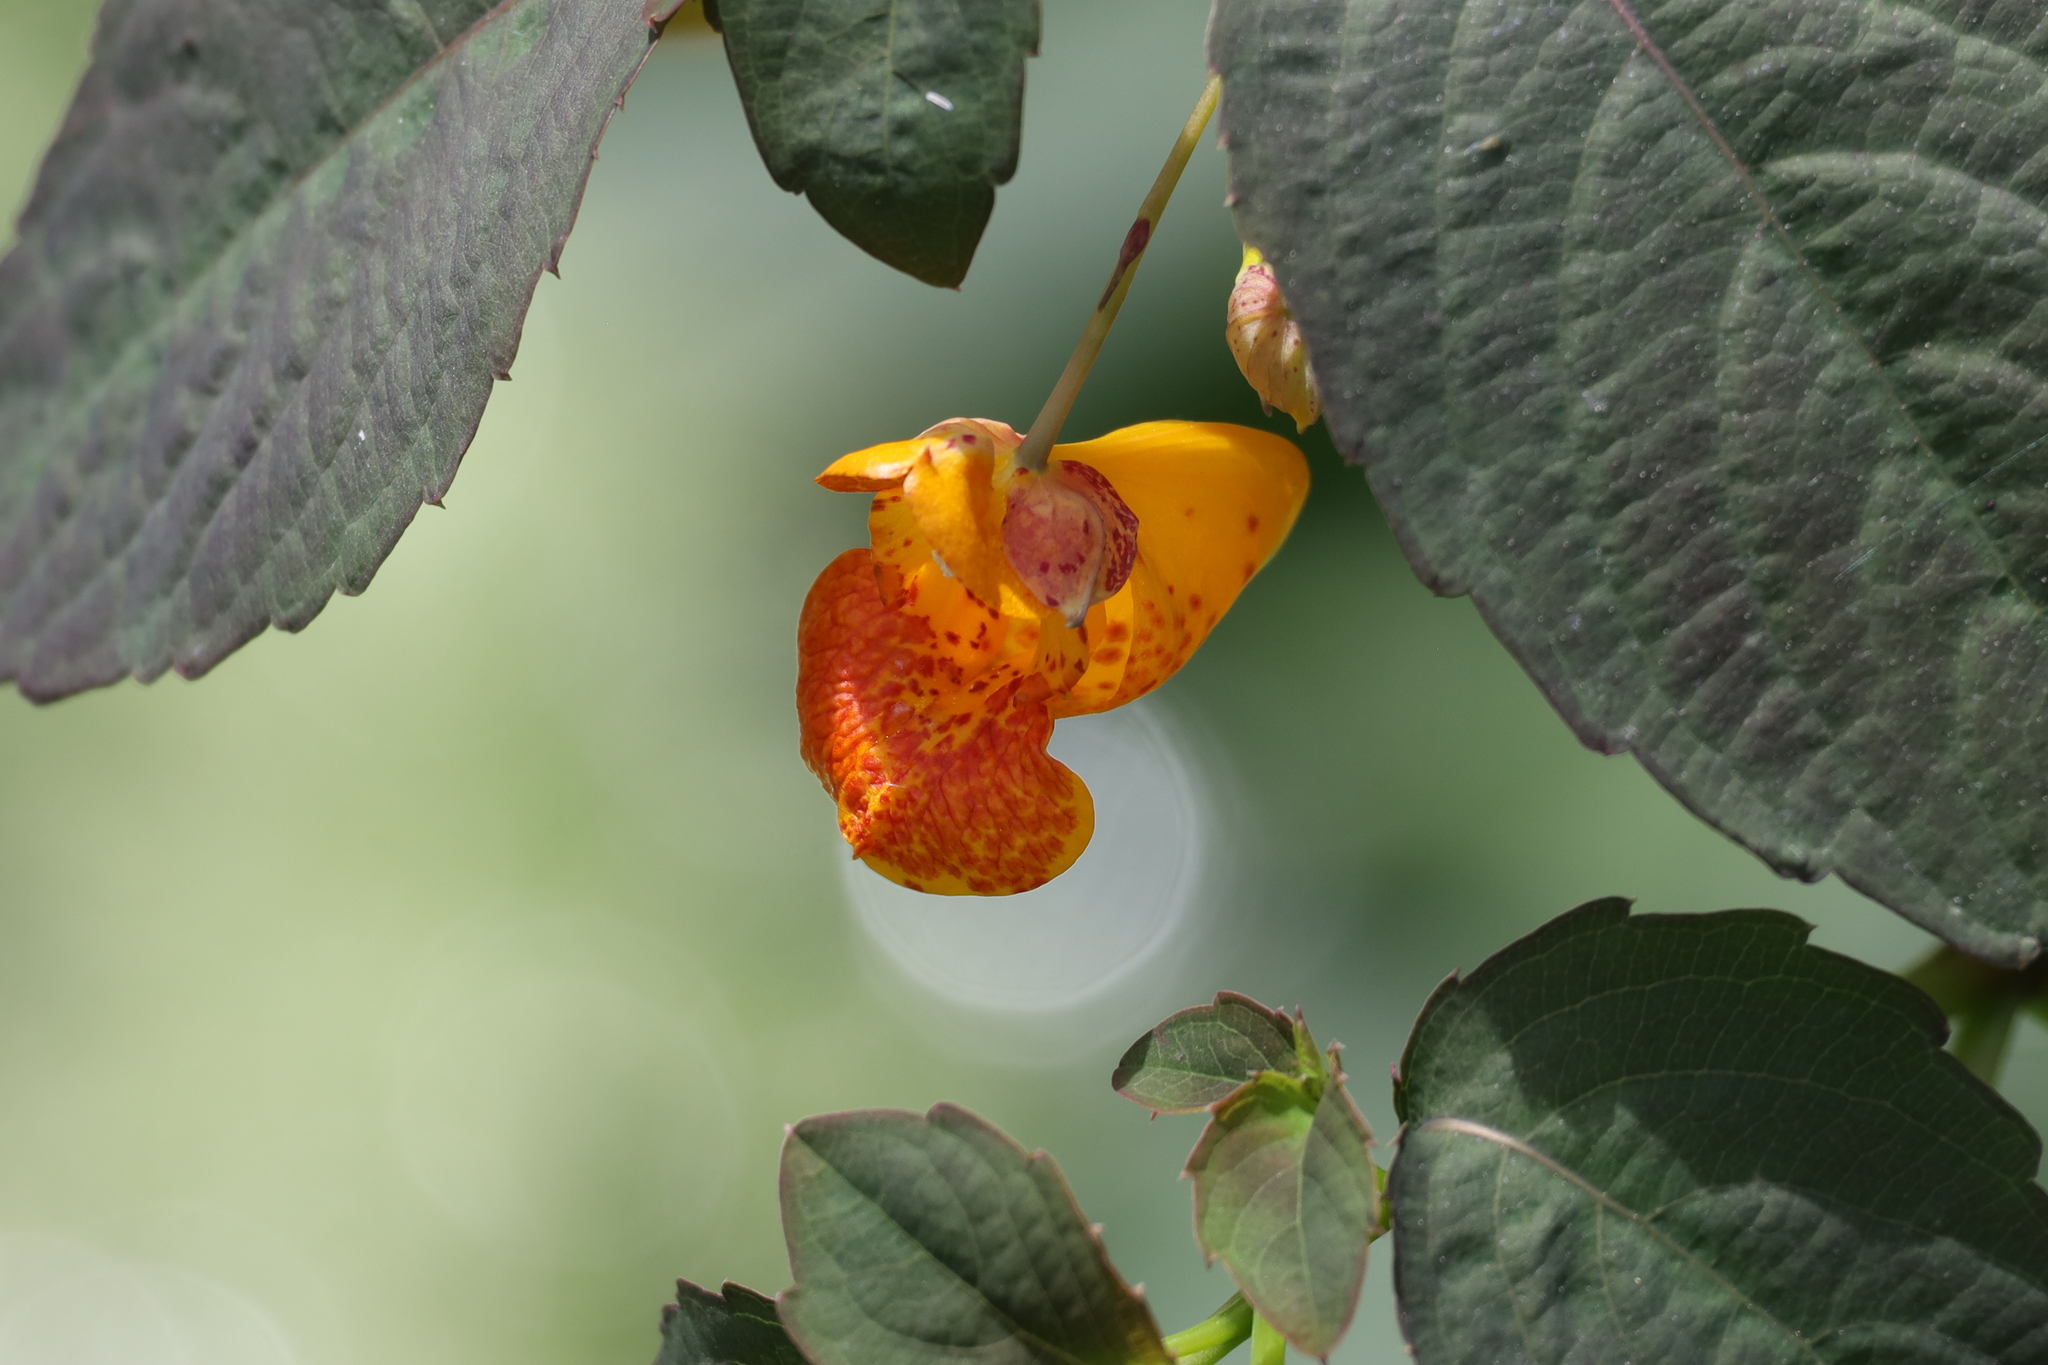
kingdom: Plantae
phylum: Tracheophyta
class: Magnoliopsida
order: Ericales
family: Balsaminaceae
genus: Impatiens
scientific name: Impatiens pacifica
